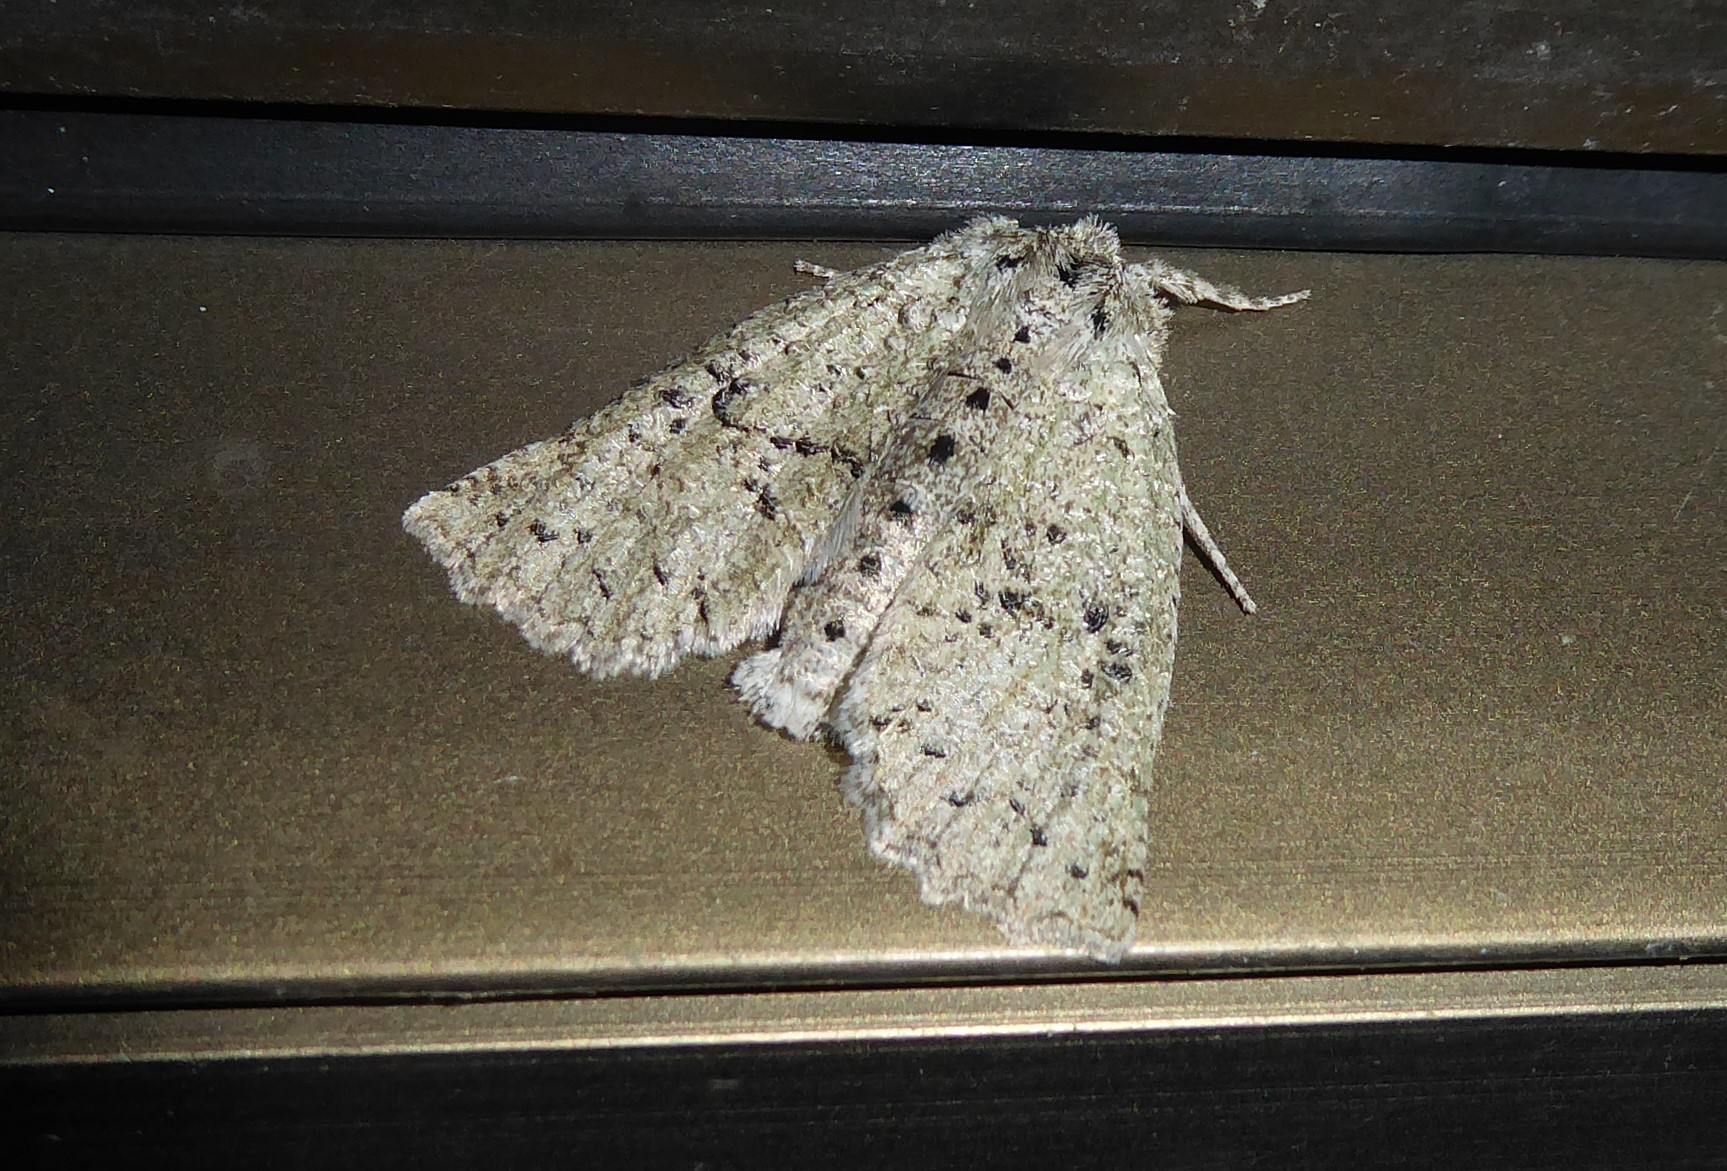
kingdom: Animalia
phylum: Arthropoda
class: Insecta
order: Lepidoptera
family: Geometridae
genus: Declana
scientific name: Declana floccosa
